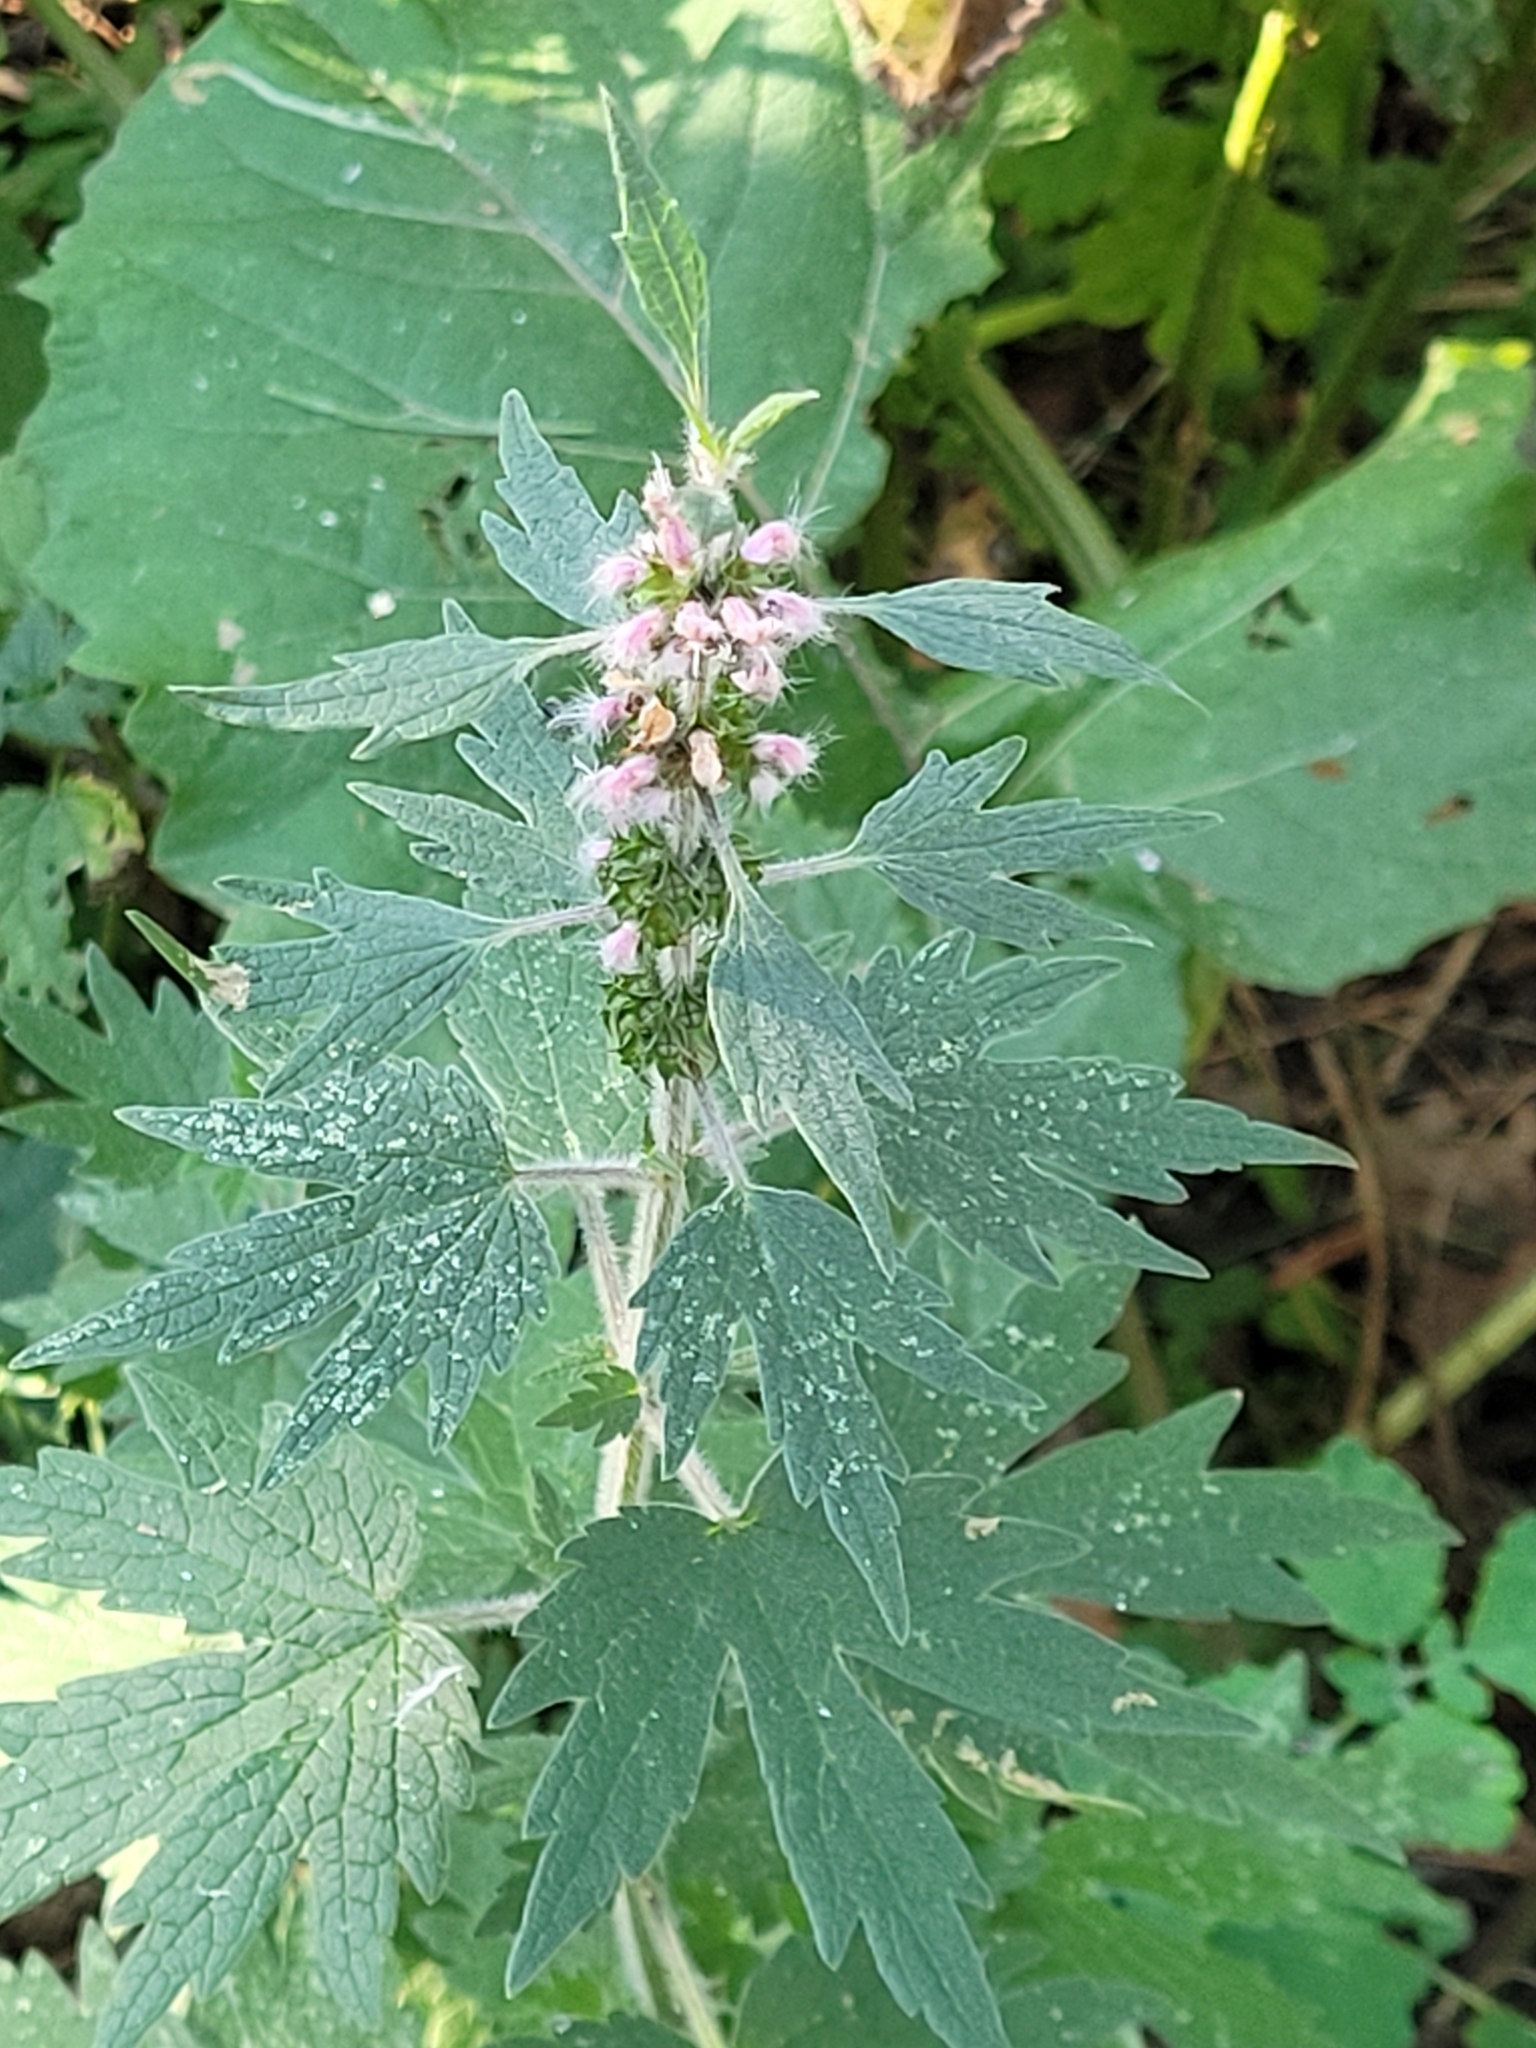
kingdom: Plantae
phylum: Tracheophyta
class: Magnoliopsida
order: Lamiales
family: Lamiaceae
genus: Leonurus
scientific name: Leonurus quinquelobatus
